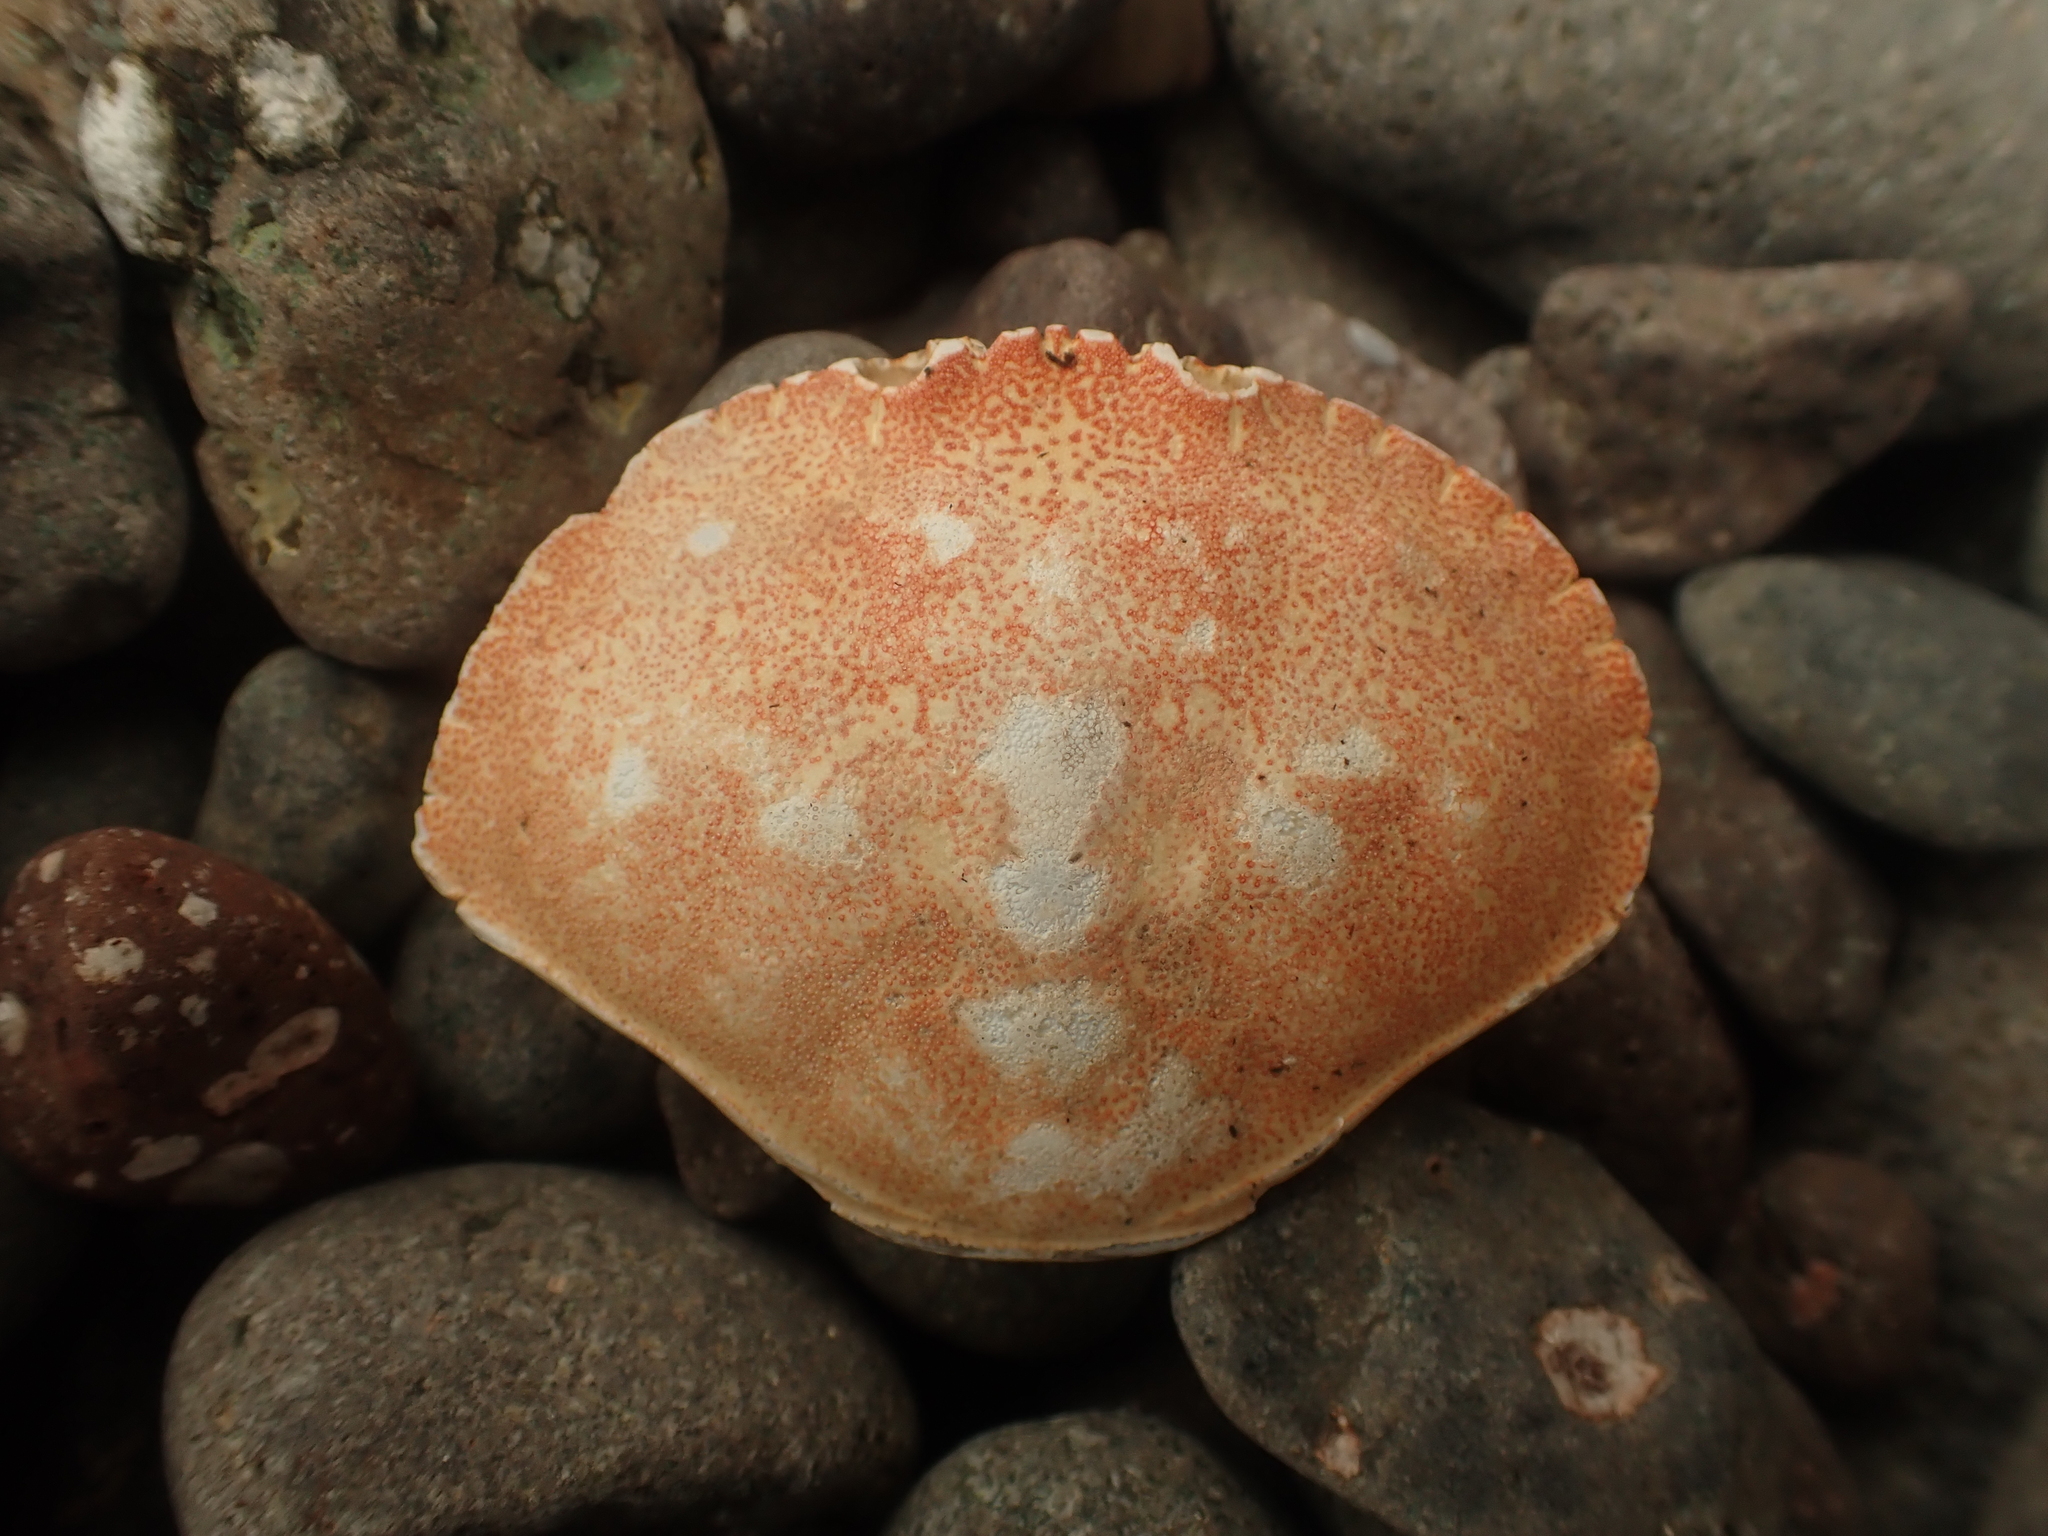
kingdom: Animalia
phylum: Arthropoda
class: Malacostraca
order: Decapoda
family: Cancridae
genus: Cancer
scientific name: Cancer irroratus
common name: Atlantic rock crab
